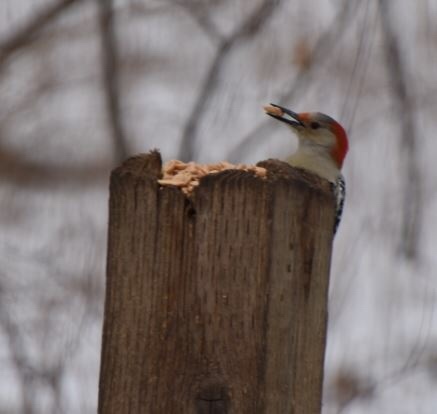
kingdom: Animalia
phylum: Chordata
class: Aves
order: Piciformes
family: Picidae
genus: Melanerpes
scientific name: Melanerpes carolinus
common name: Red-bellied woodpecker
